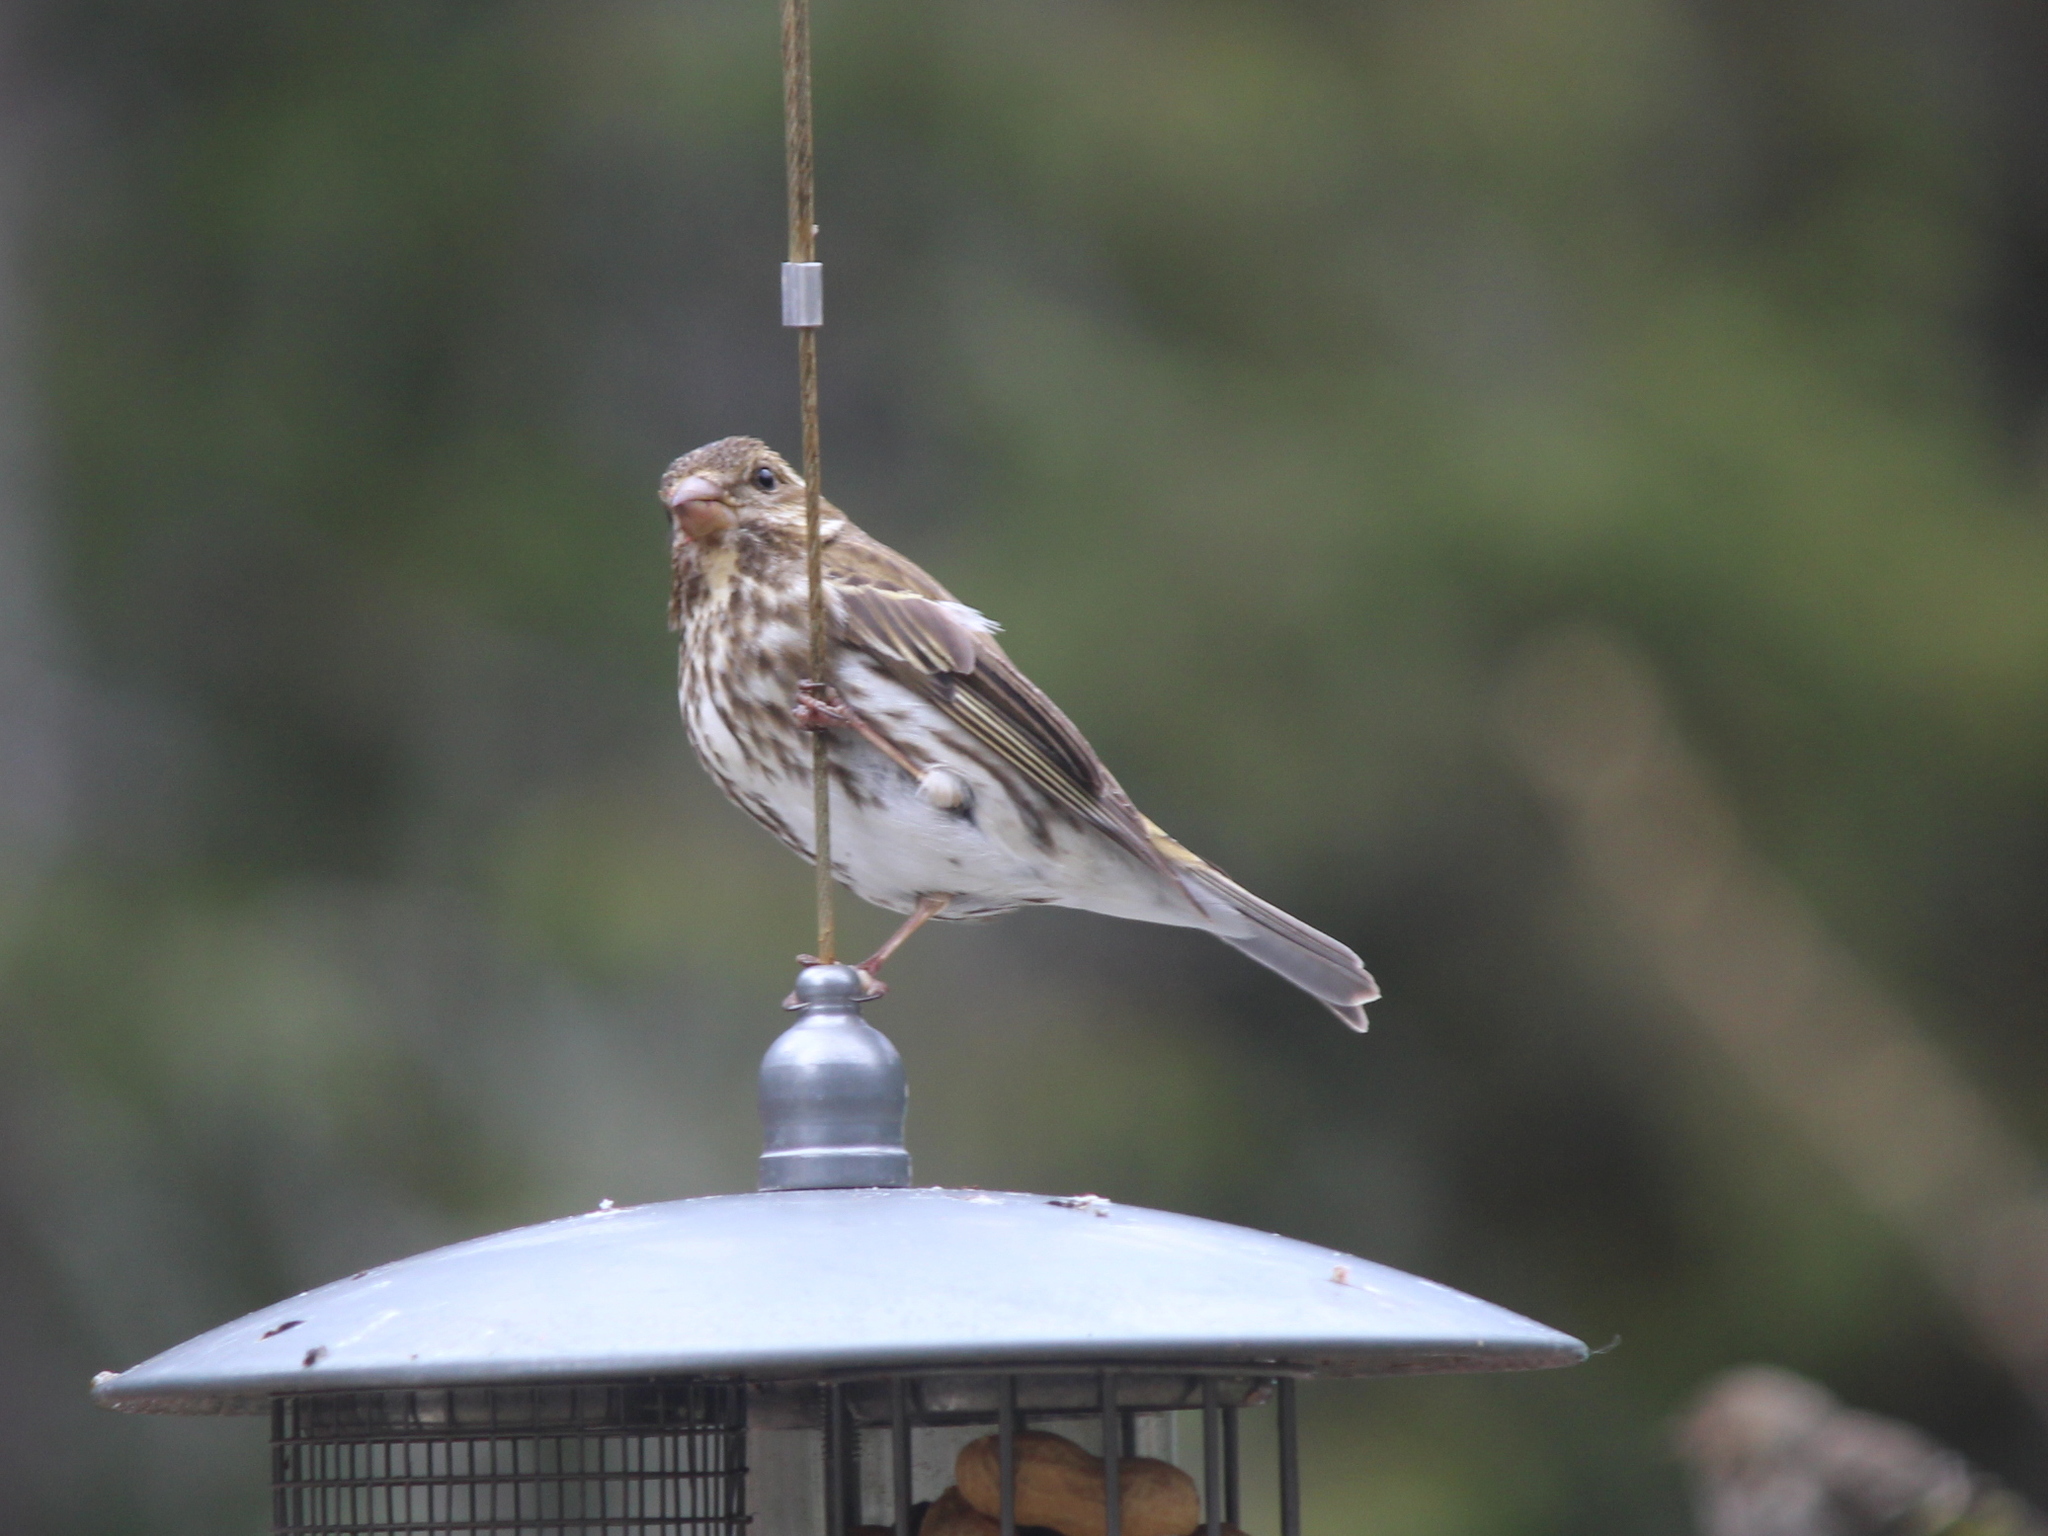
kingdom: Animalia
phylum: Chordata
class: Aves
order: Passeriformes
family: Fringillidae
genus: Haemorhous
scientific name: Haemorhous purpureus
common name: Purple finch
